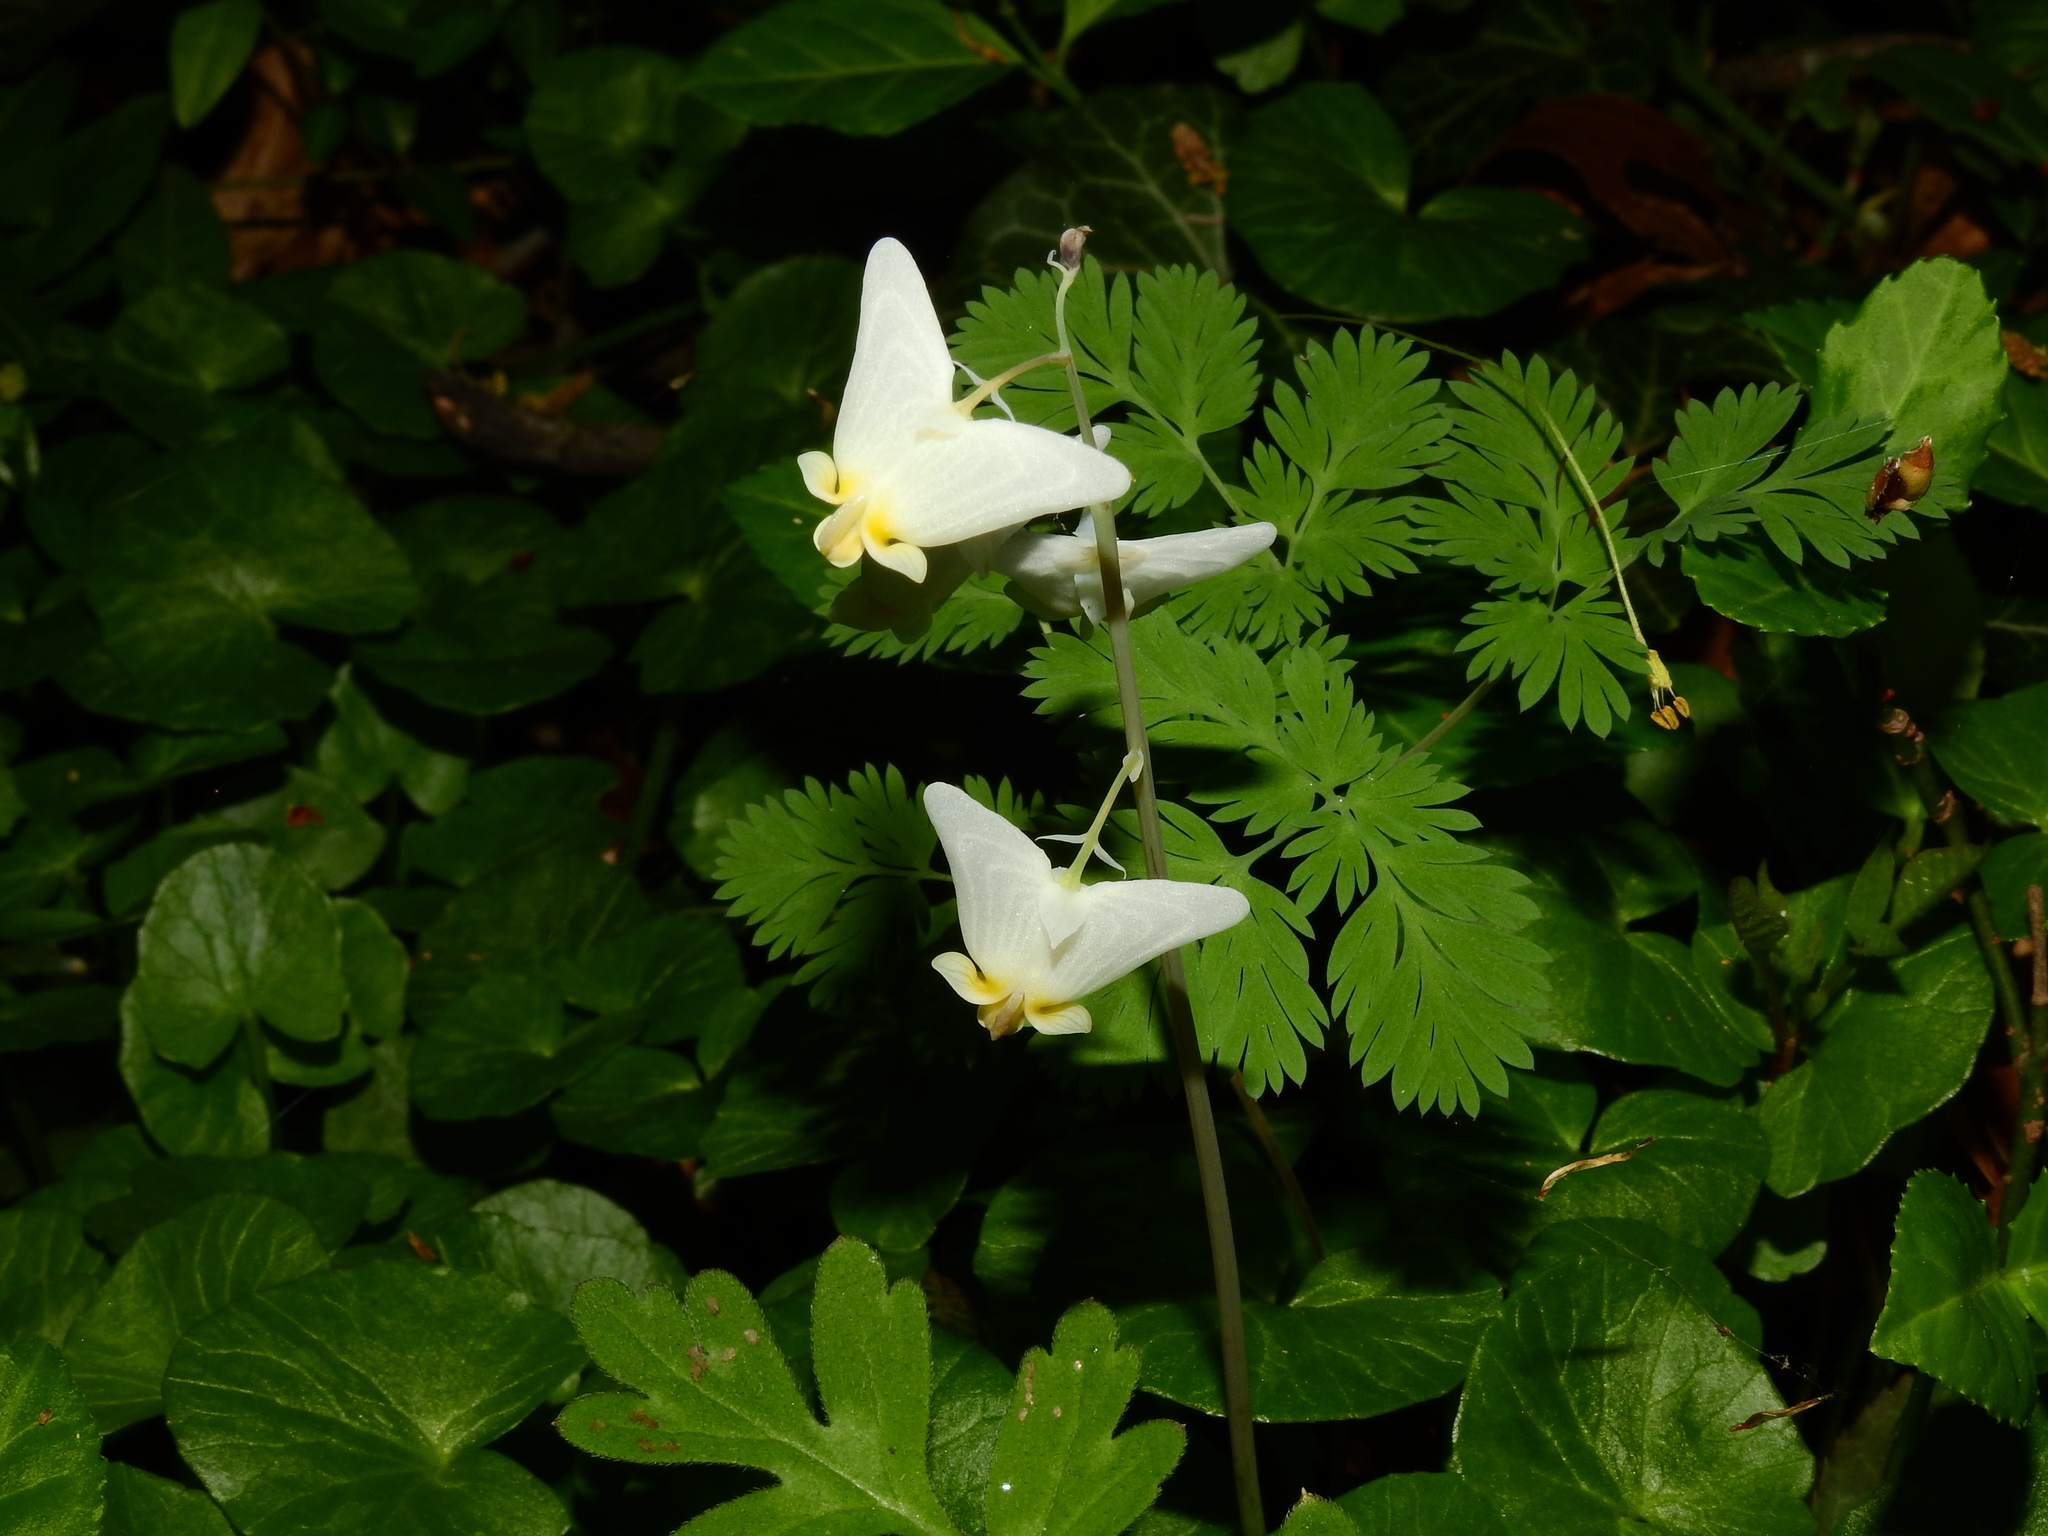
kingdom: Plantae
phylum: Tracheophyta
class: Magnoliopsida
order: Ranunculales
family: Papaveraceae
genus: Dicentra
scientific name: Dicentra cucullaria
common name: Dutchman's breeches
